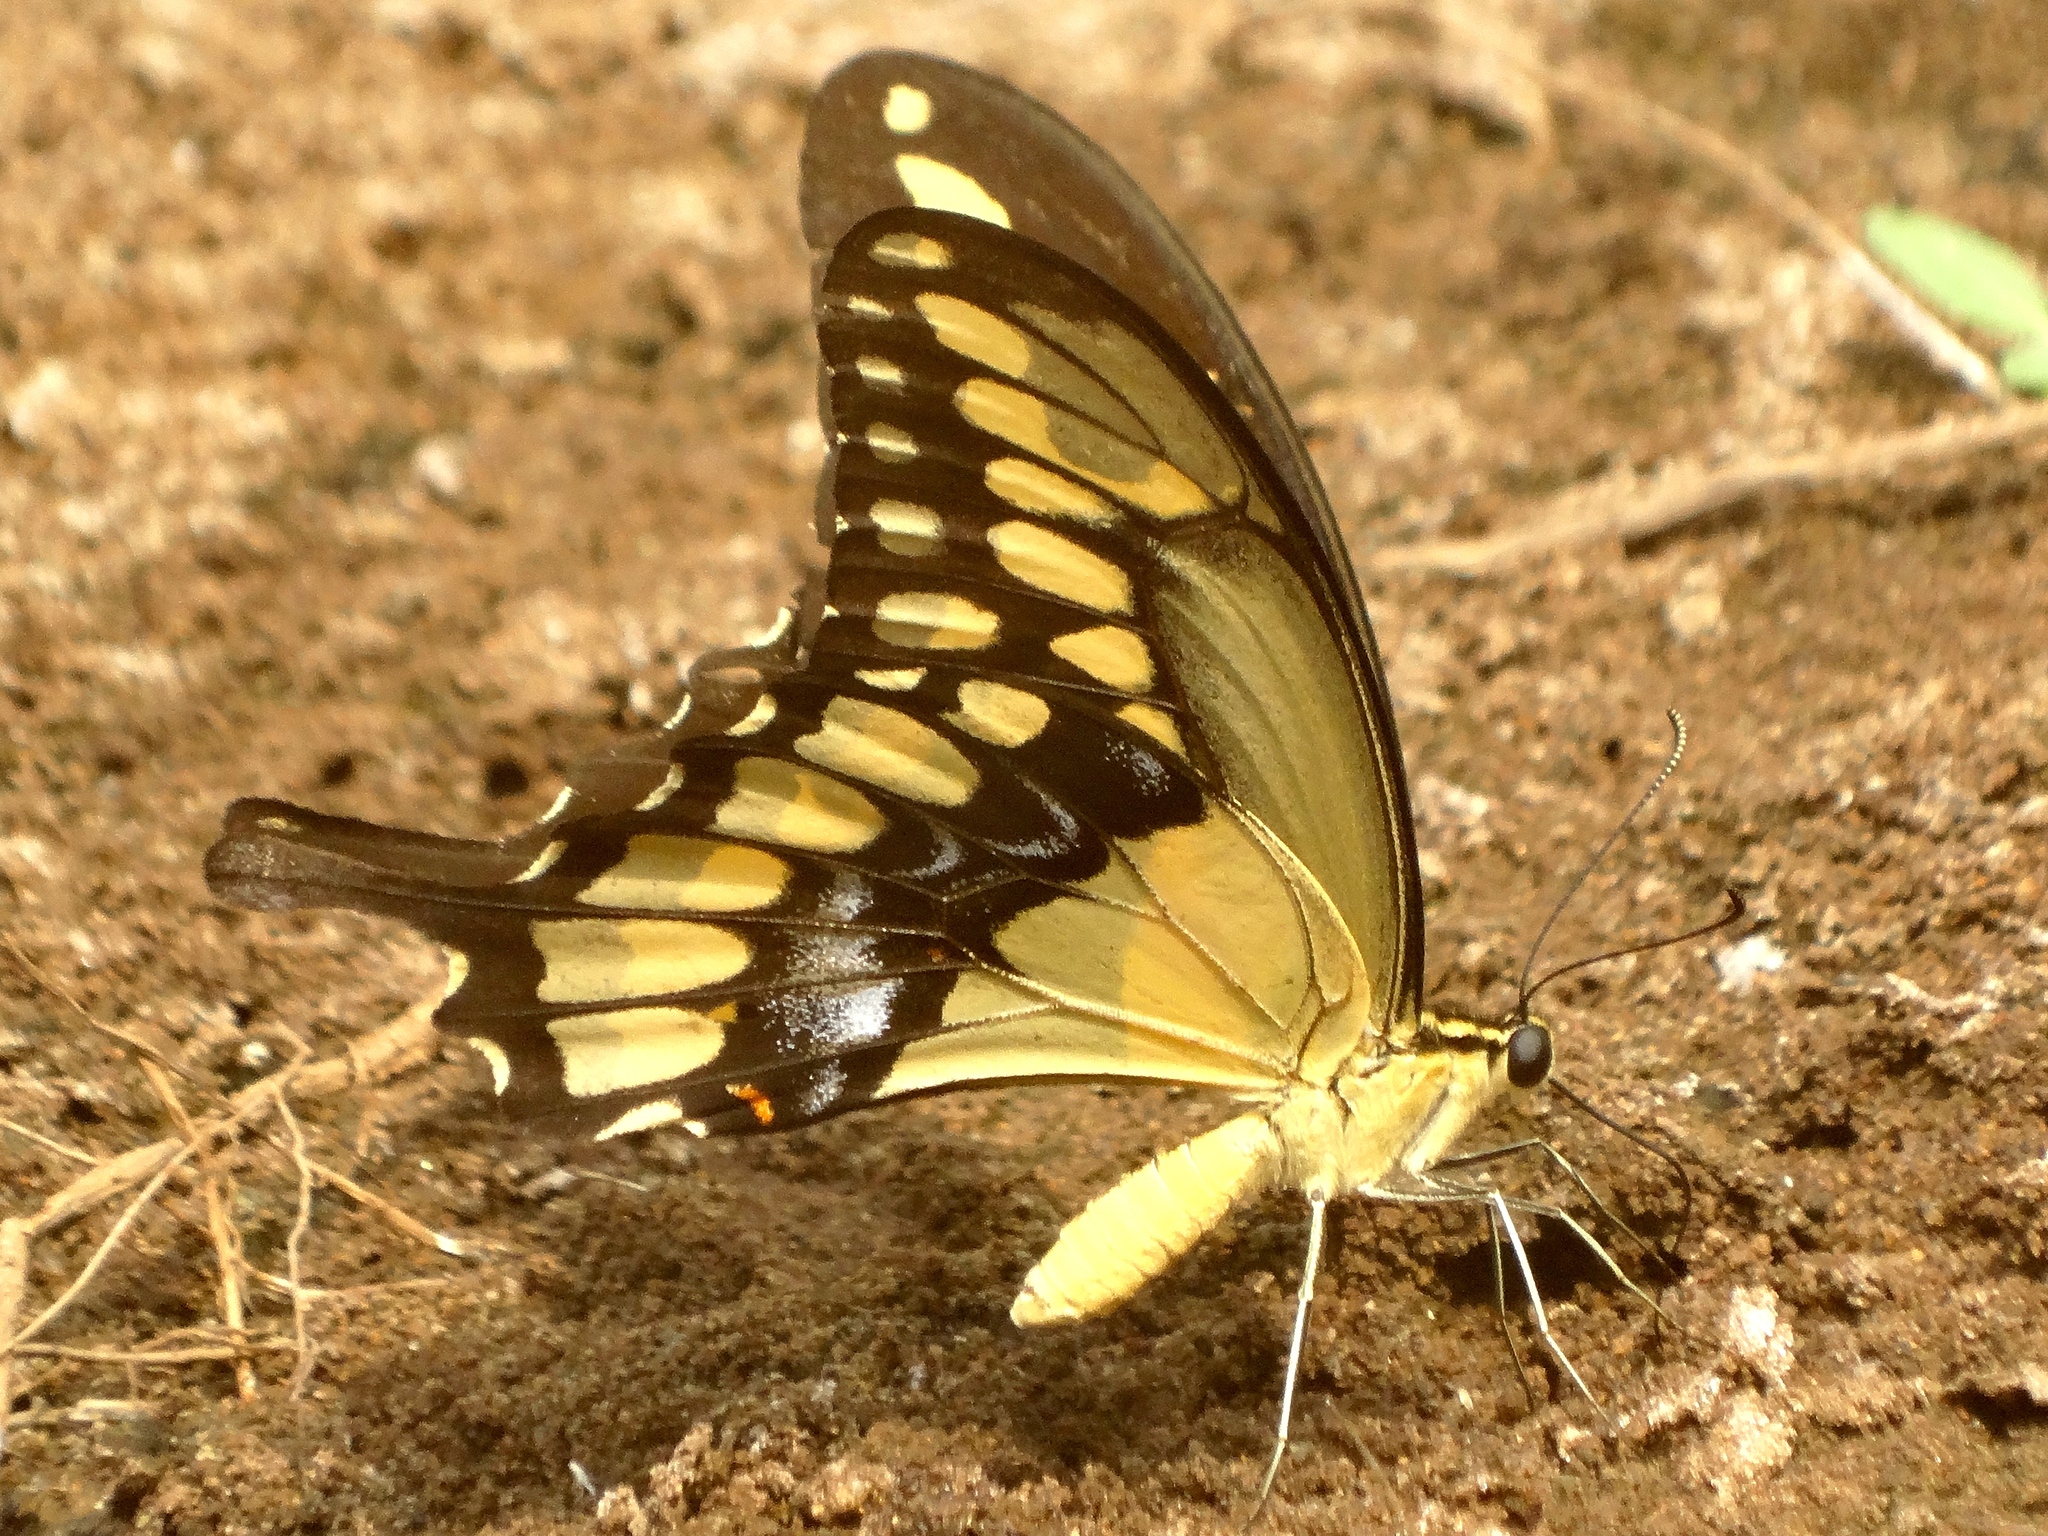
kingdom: Animalia
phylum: Arthropoda
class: Insecta
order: Lepidoptera
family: Papilionidae
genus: Papilio
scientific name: Papilio rumiko
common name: Western giant swallowtail
